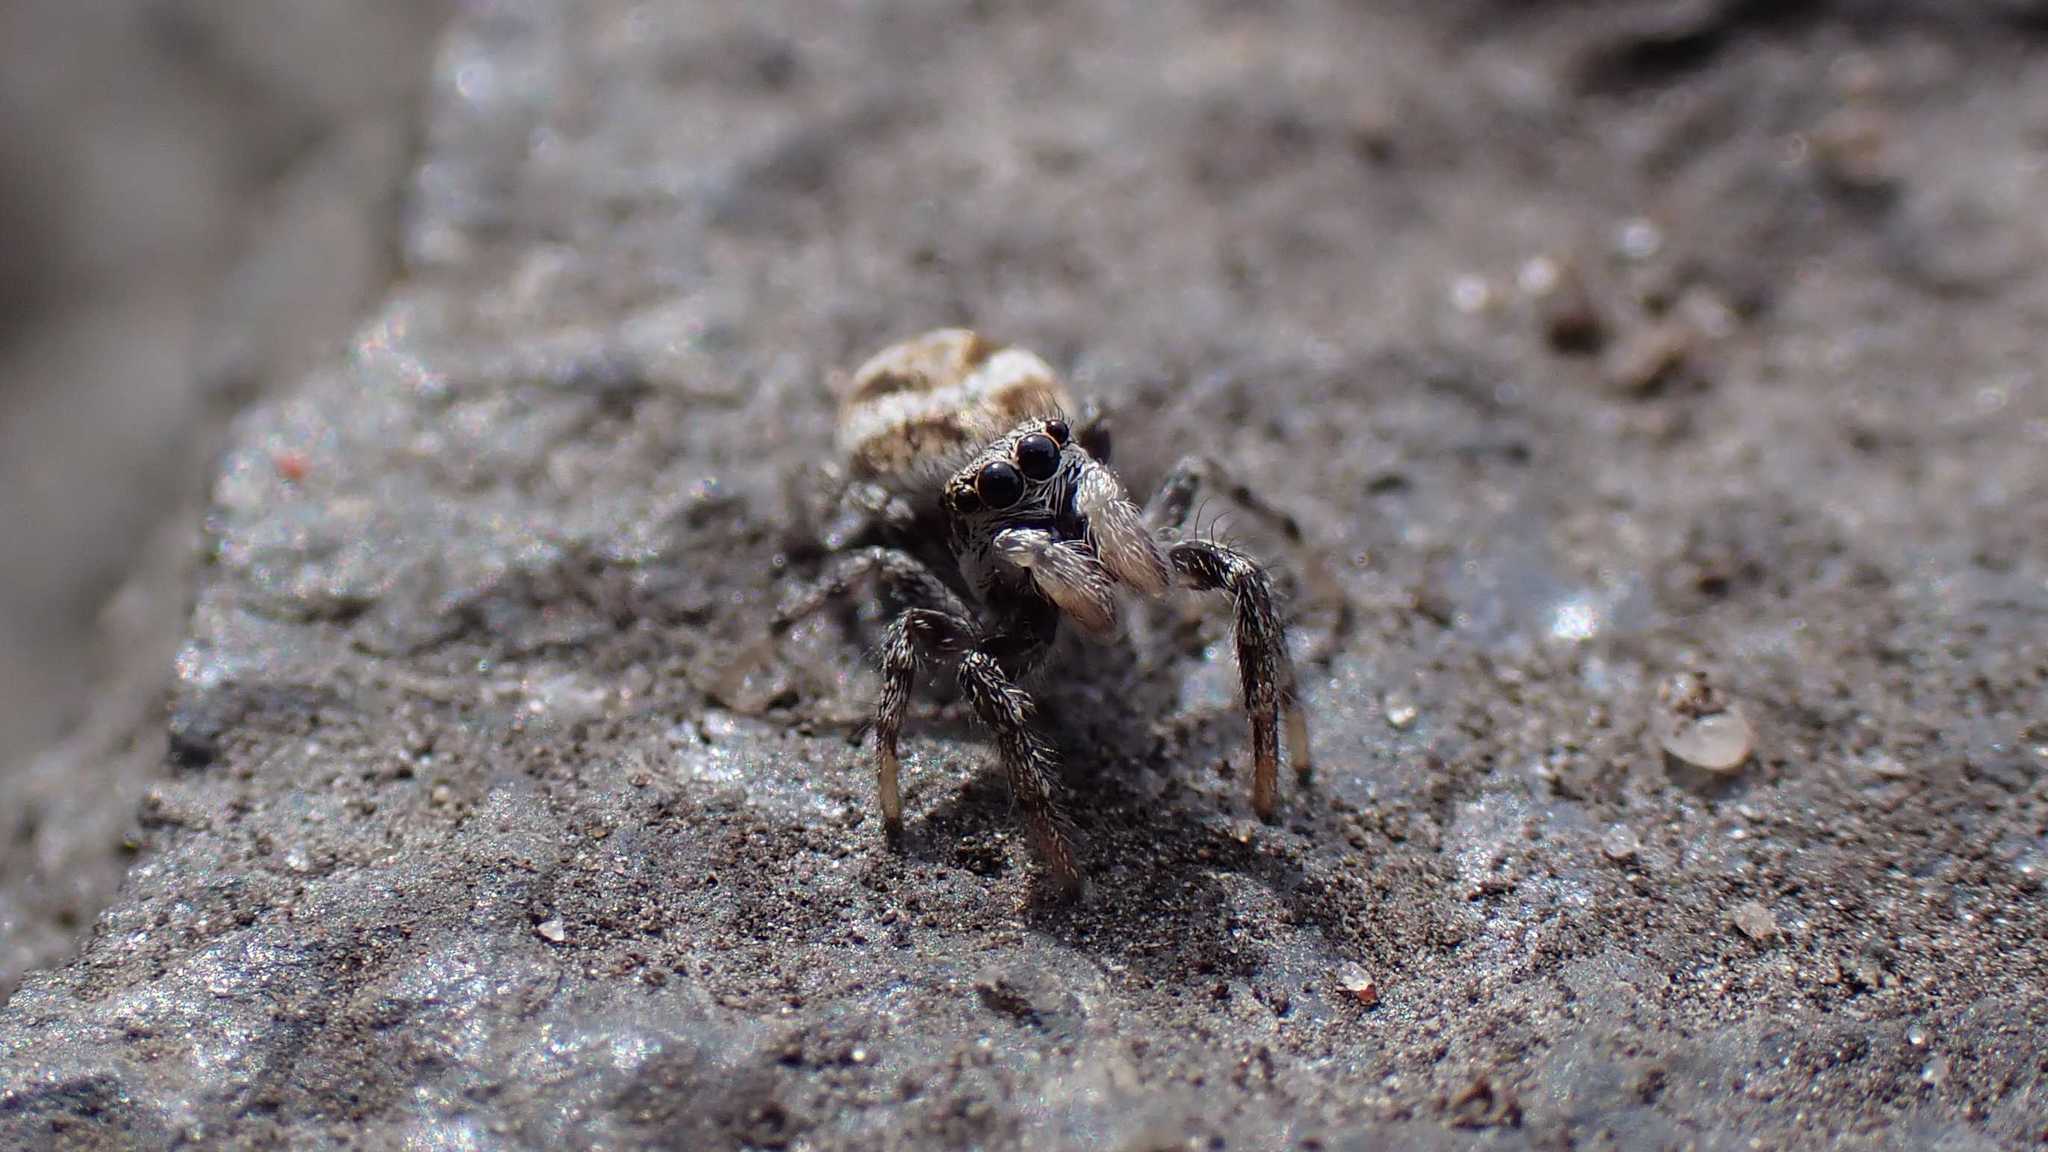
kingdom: Animalia
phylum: Arthropoda
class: Arachnida
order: Araneae
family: Salticidae
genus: Salticus
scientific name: Salticus scenicus
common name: Zebra jumper
